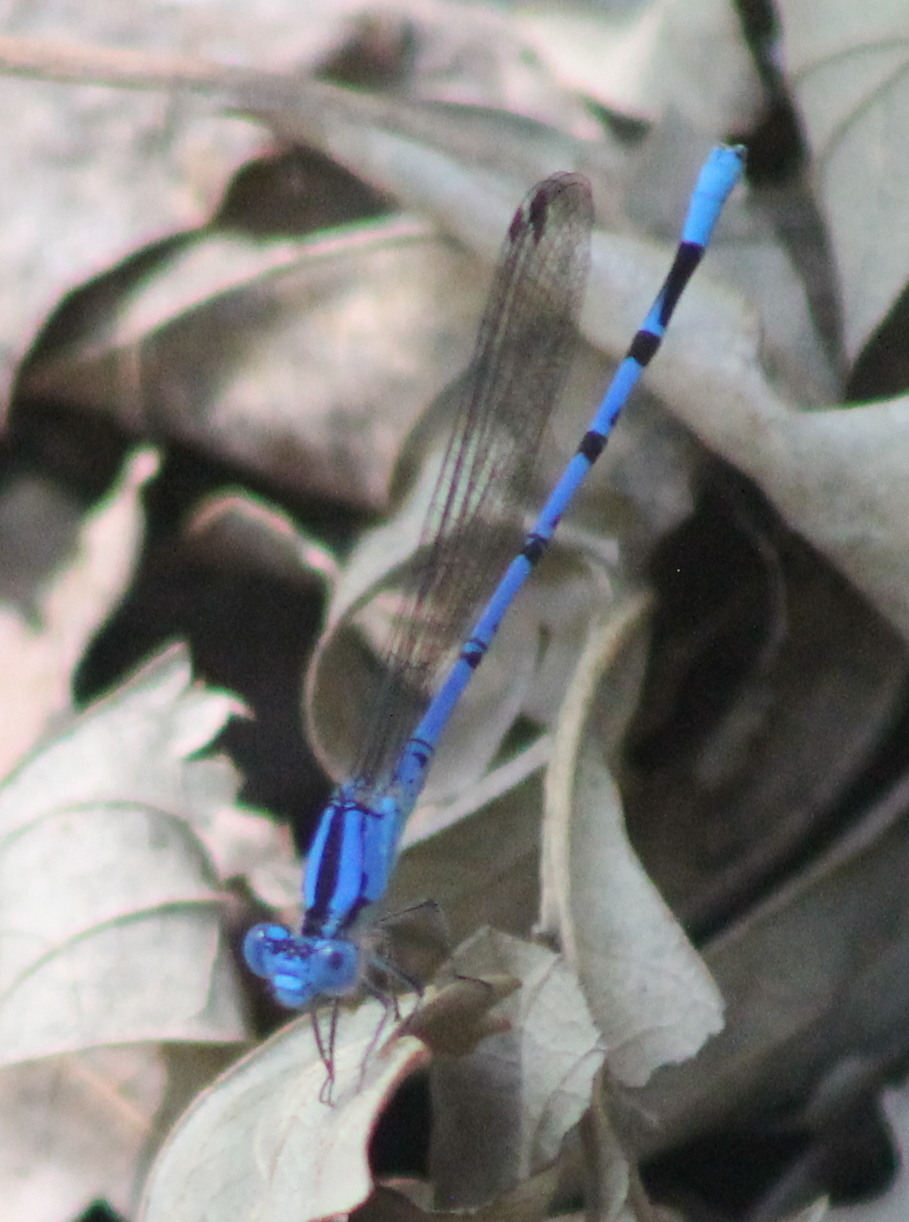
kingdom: Animalia
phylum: Arthropoda
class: Insecta
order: Odonata
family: Coenagrionidae
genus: Argia
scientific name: Argia funebris
